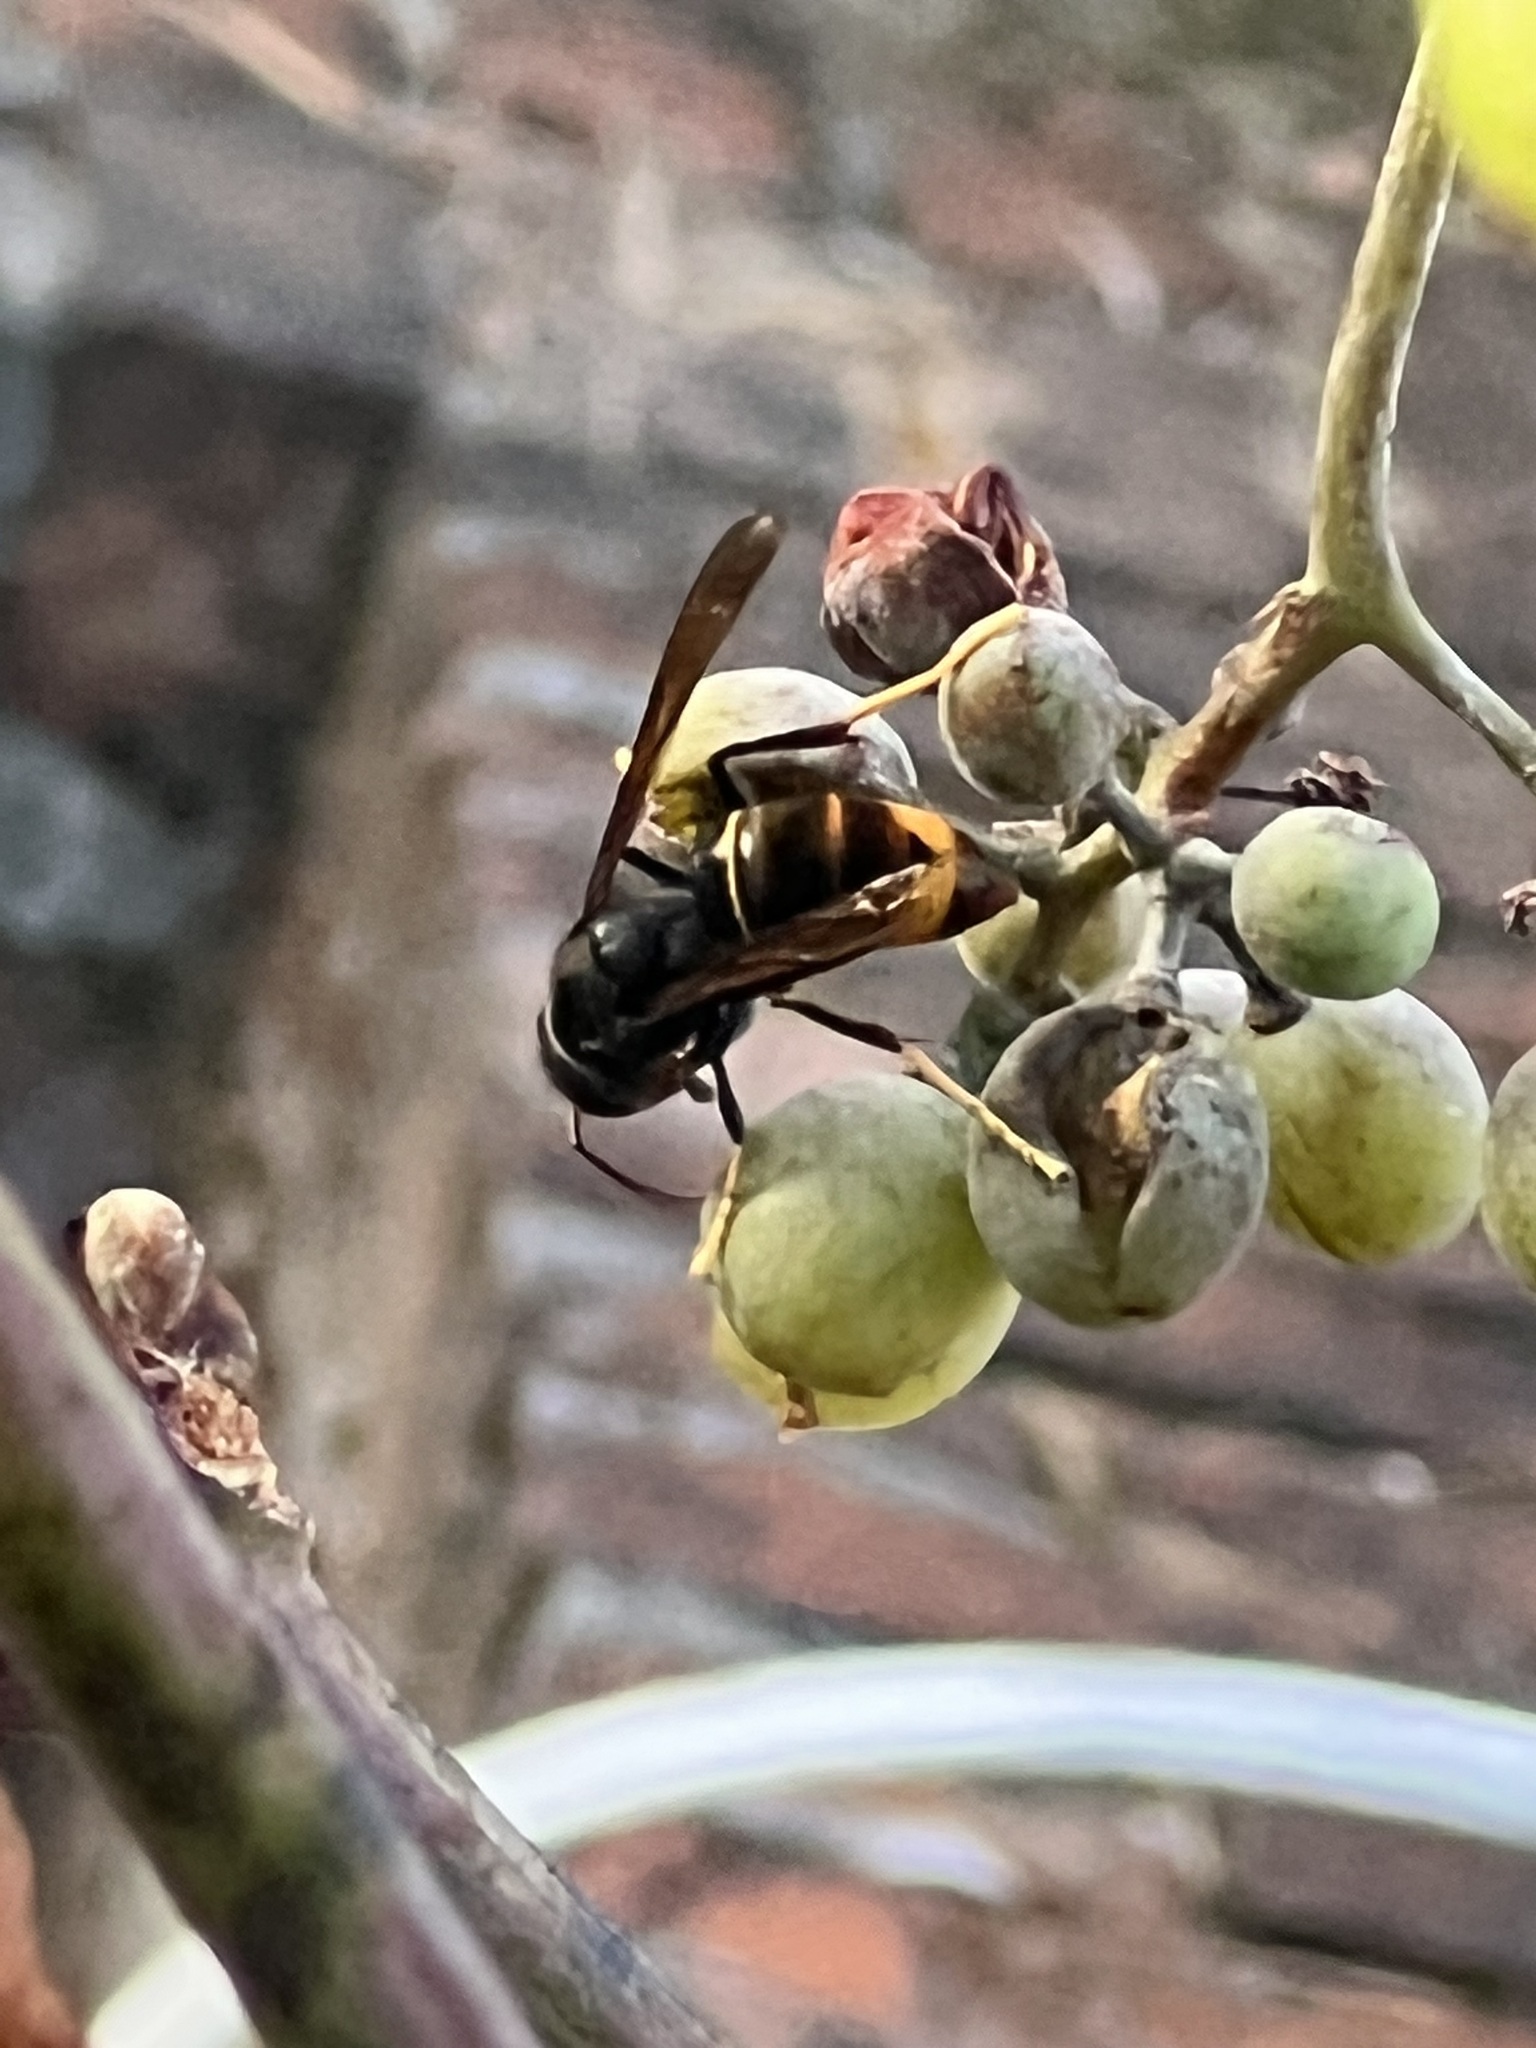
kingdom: Animalia
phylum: Arthropoda
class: Insecta
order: Hymenoptera
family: Vespidae
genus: Vespa
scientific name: Vespa velutina
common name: Asian hornet
